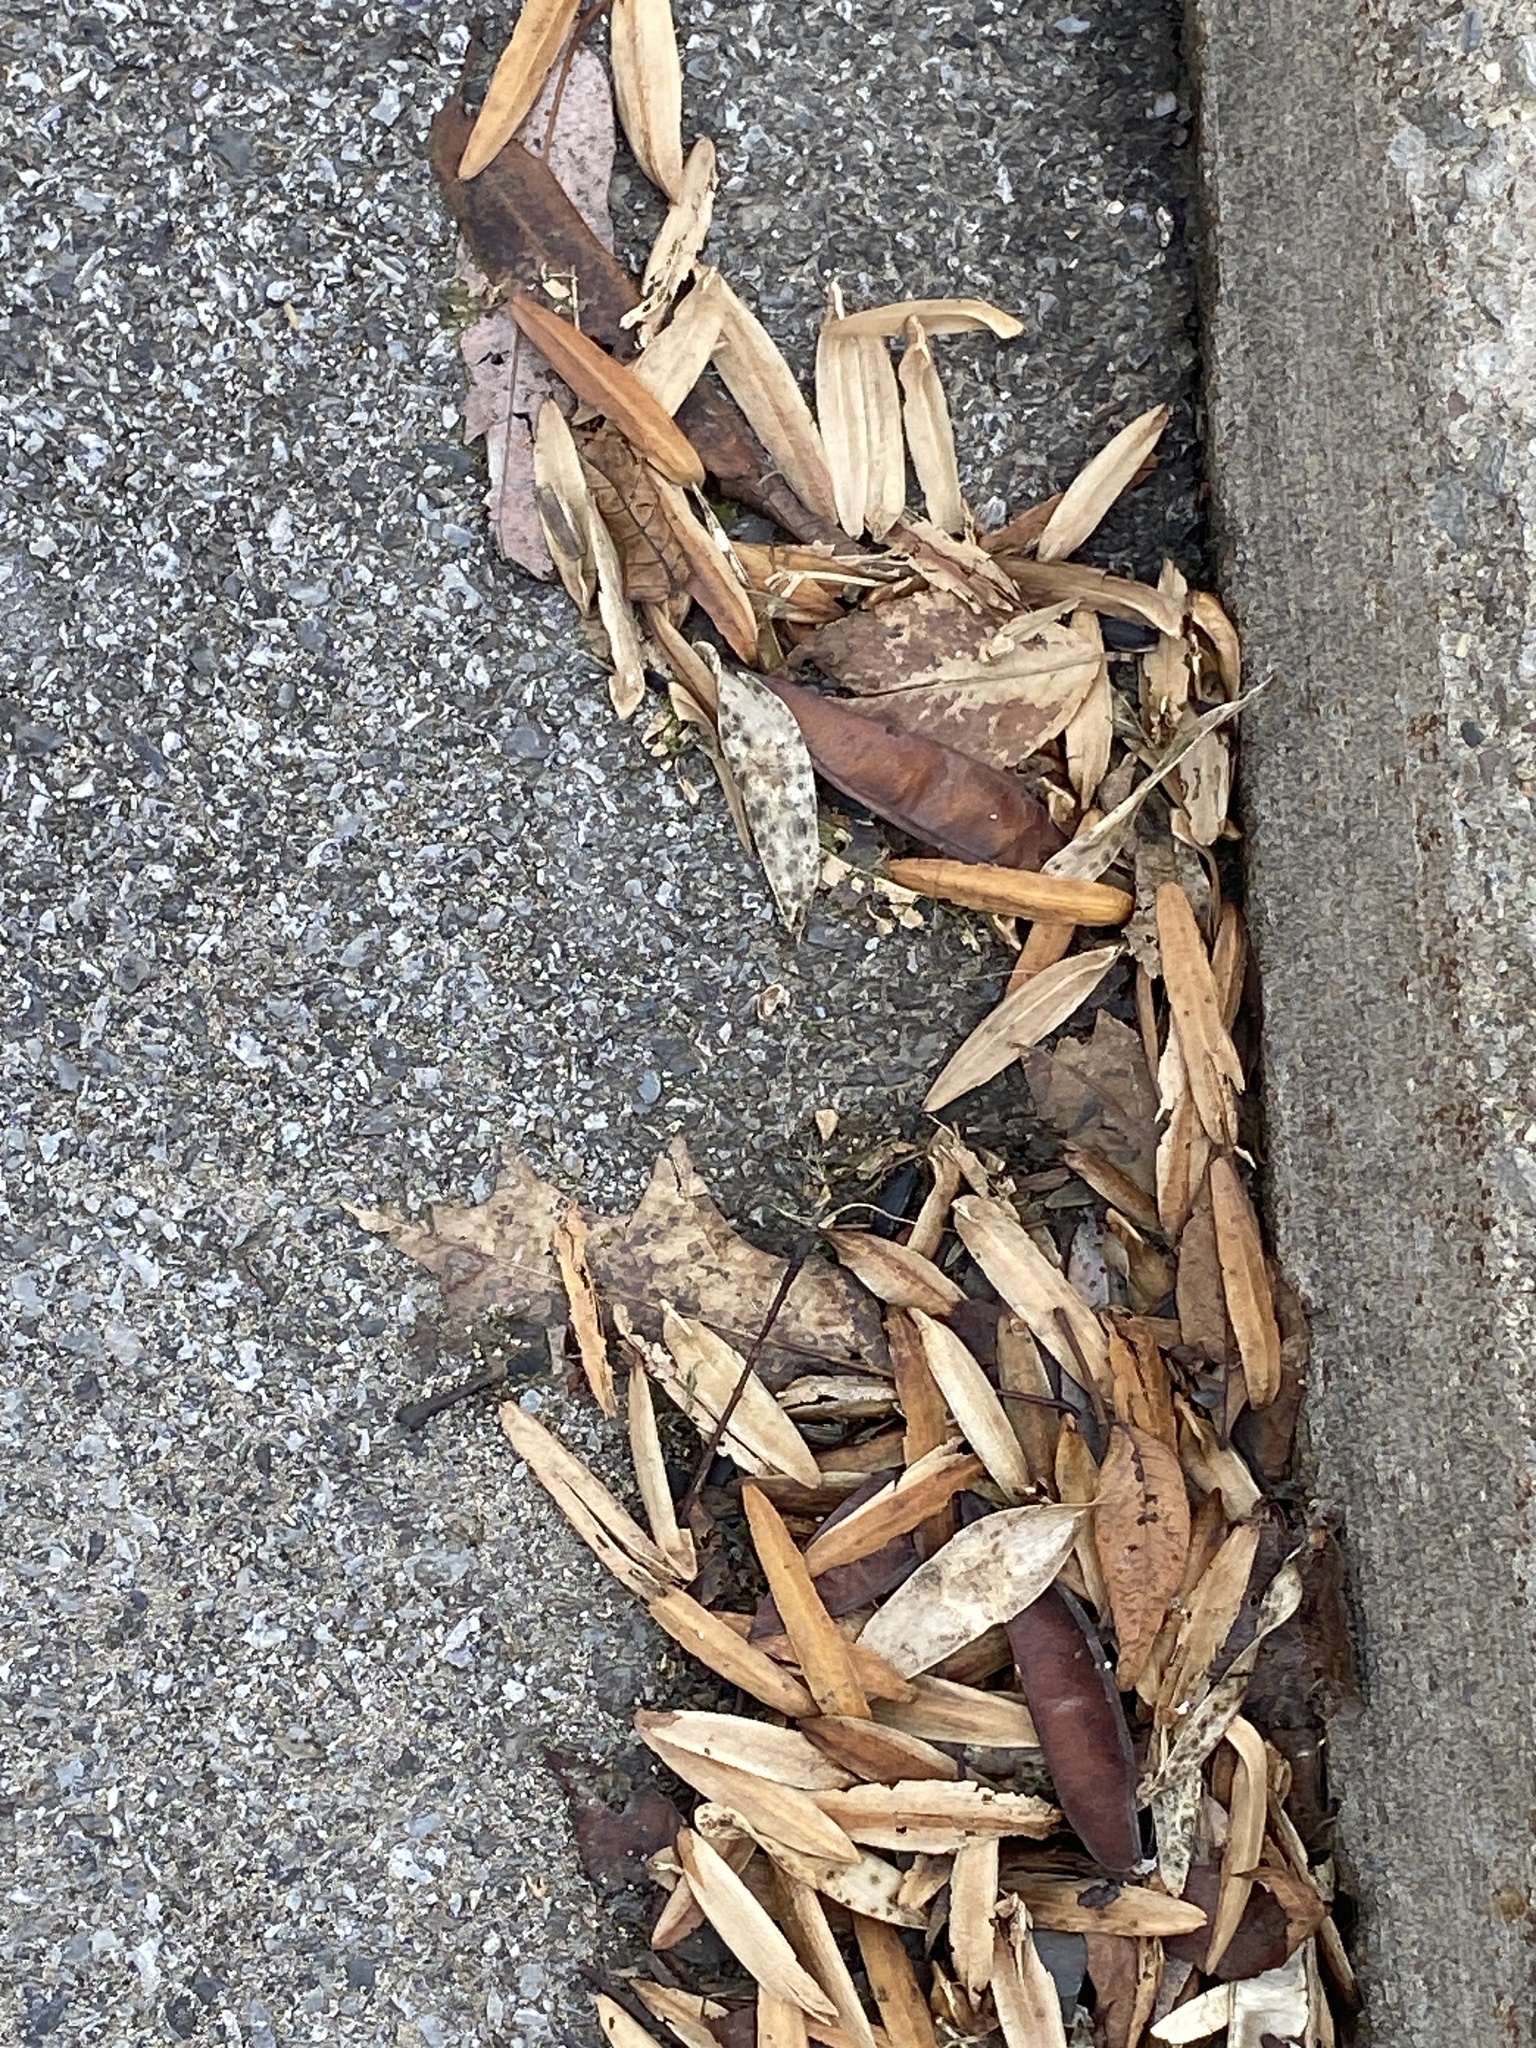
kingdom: Plantae
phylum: Tracheophyta
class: Magnoliopsida
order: Magnoliales
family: Magnoliaceae
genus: Liriodendron
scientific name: Liriodendron tulipifera
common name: Tulip tree
